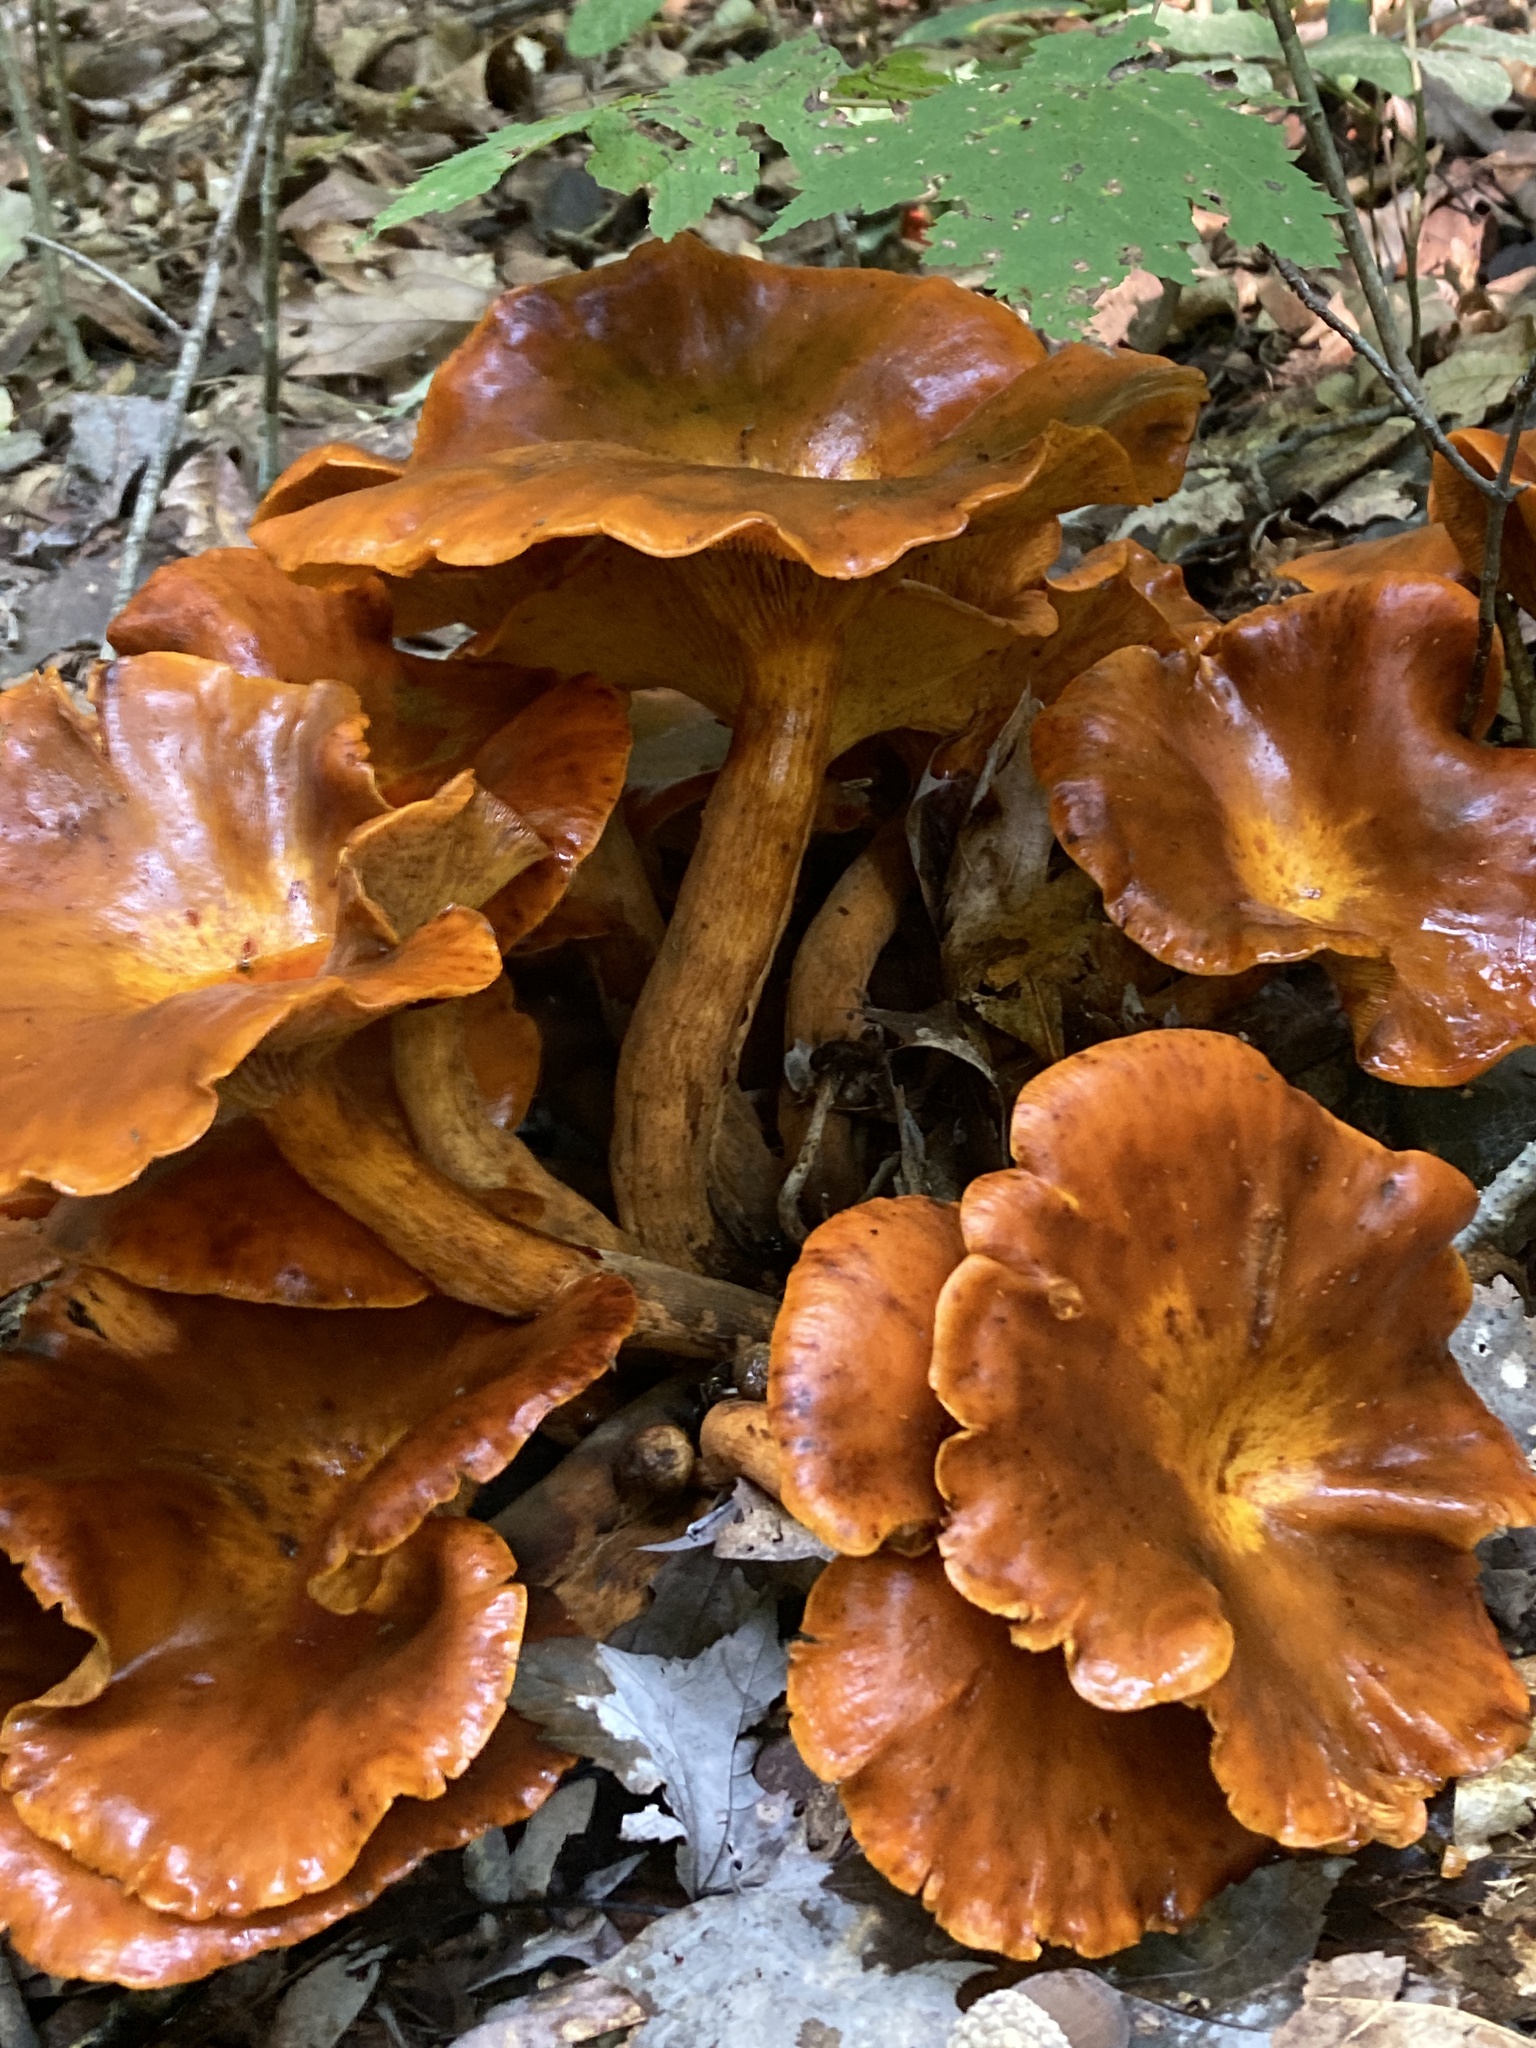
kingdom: Fungi
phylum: Basidiomycota
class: Agaricomycetes
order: Agaricales
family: Omphalotaceae
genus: Omphalotus
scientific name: Omphalotus illudens
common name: Jack o lantern
